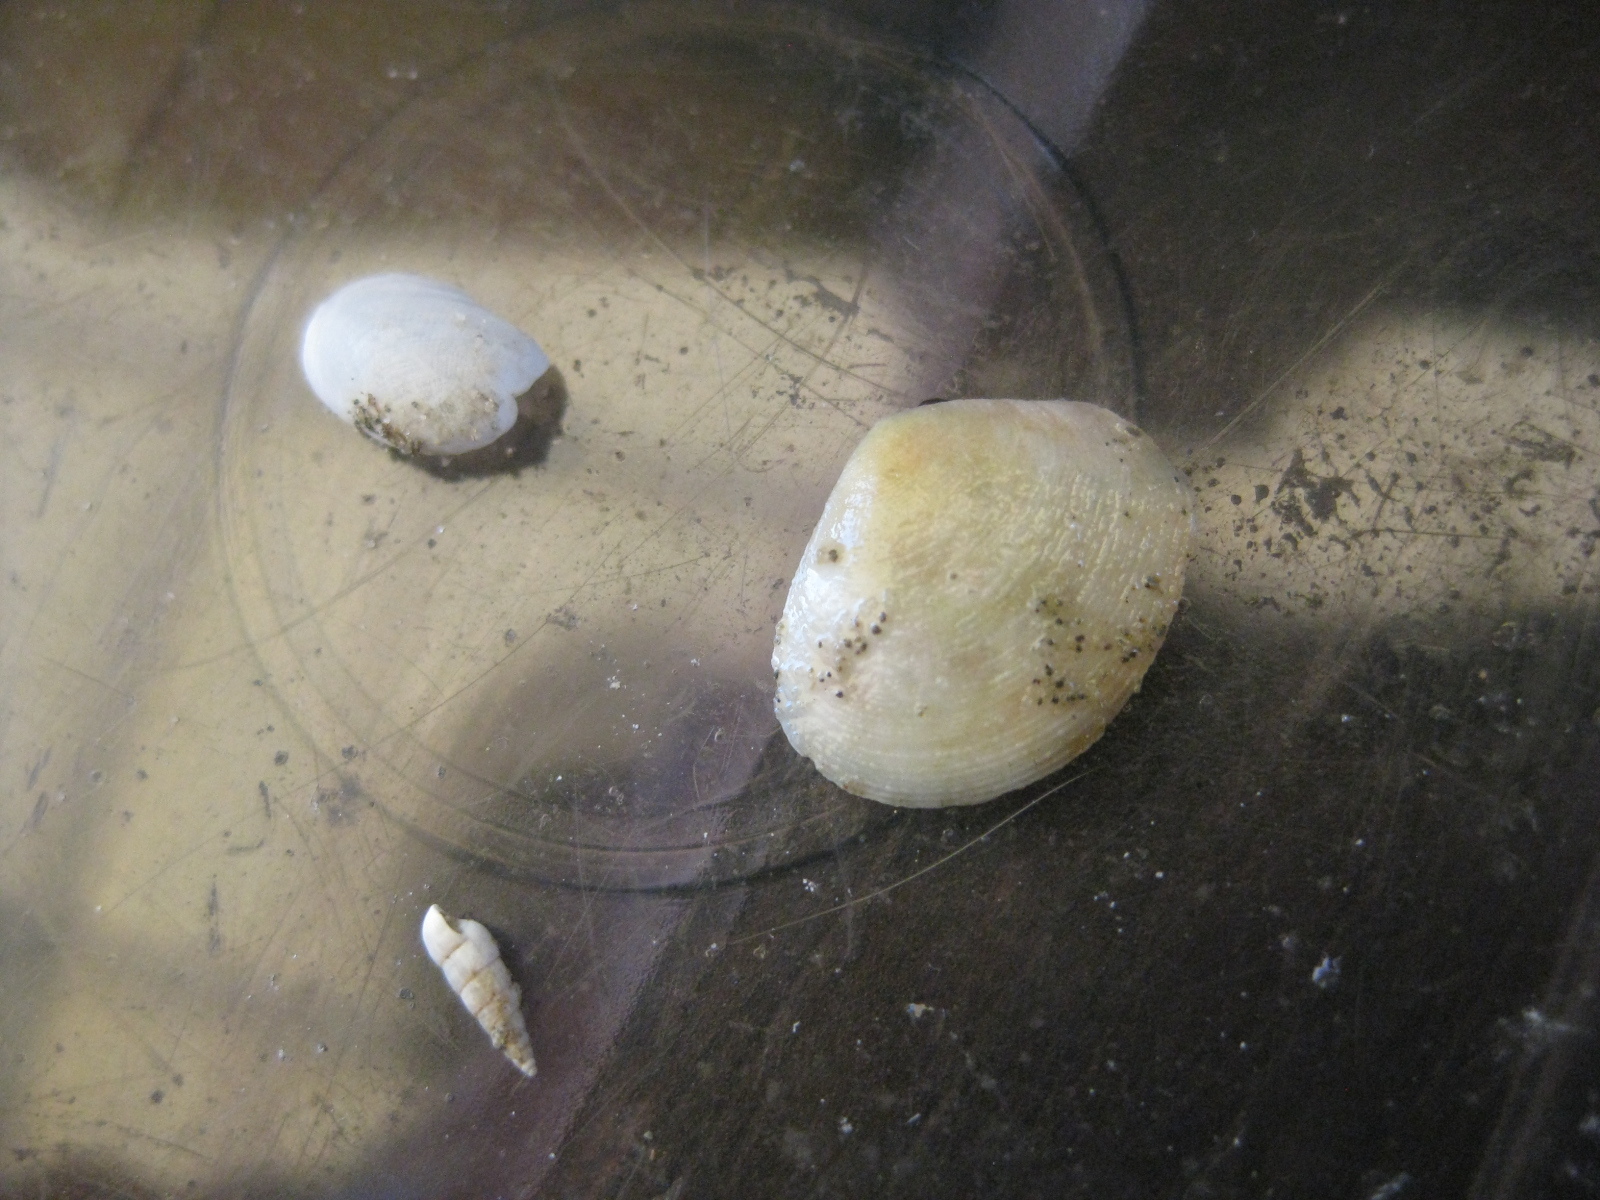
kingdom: Animalia
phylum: Mollusca
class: Bivalvia
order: Cardiida
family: Tellinidae
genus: Pseudarcopagia
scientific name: Pseudarcopagia disculus
